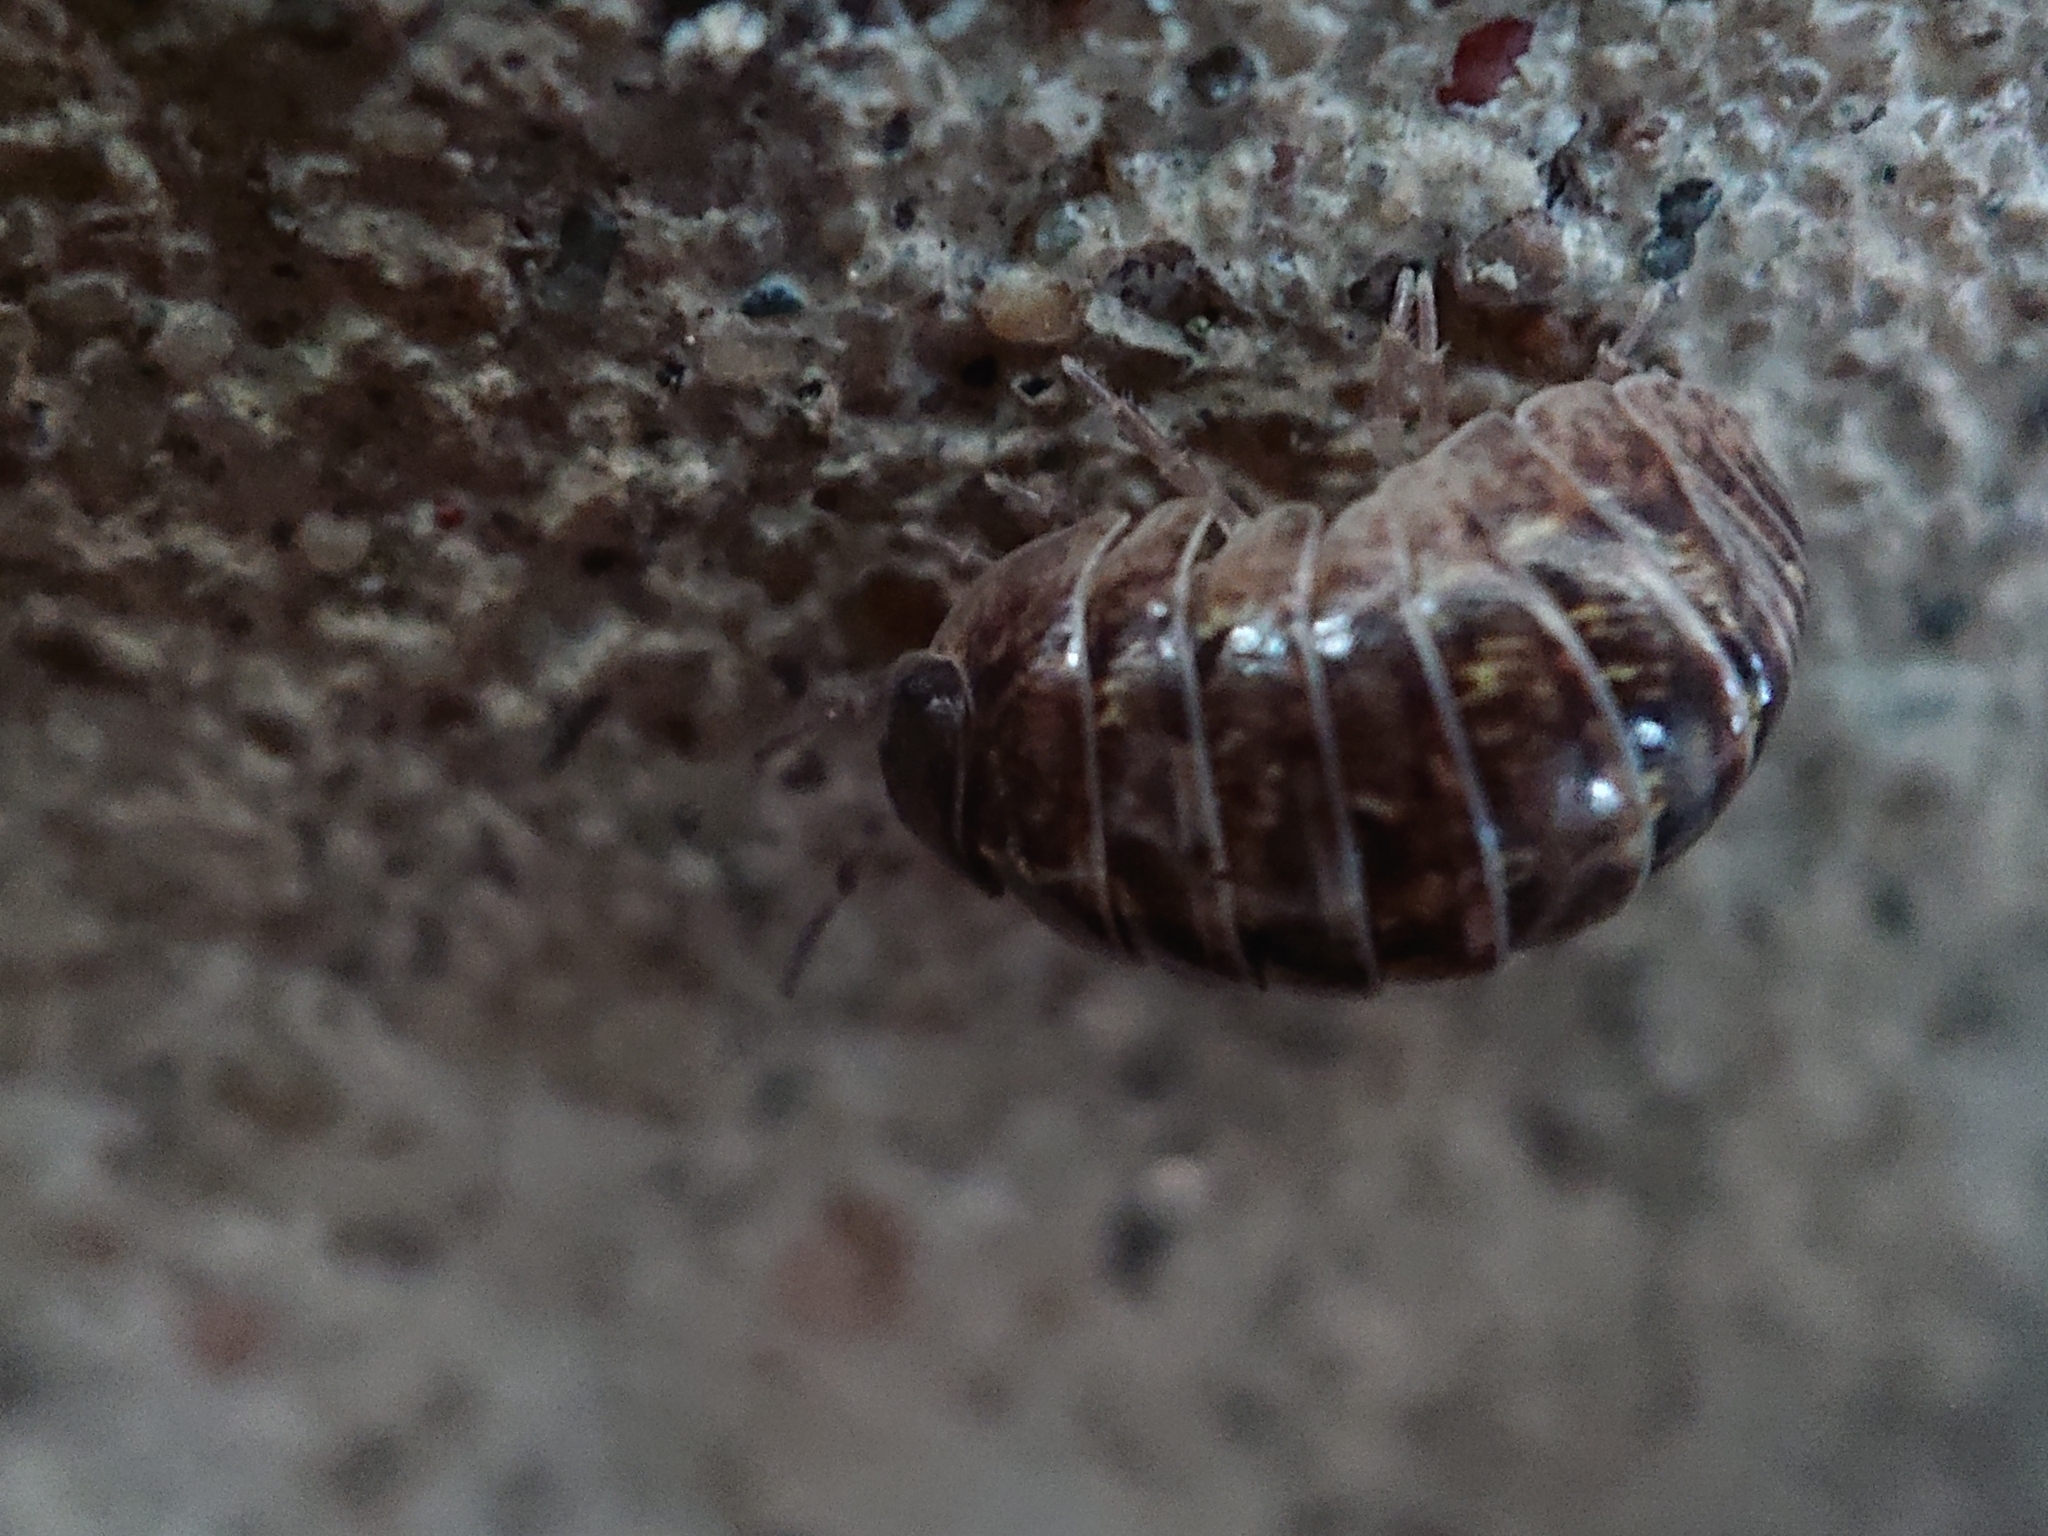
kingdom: Animalia
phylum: Arthropoda
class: Malacostraca
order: Isopoda
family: Armadillidiidae
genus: Armadillidium
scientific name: Armadillidium vulgare
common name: Common pill woodlouse
